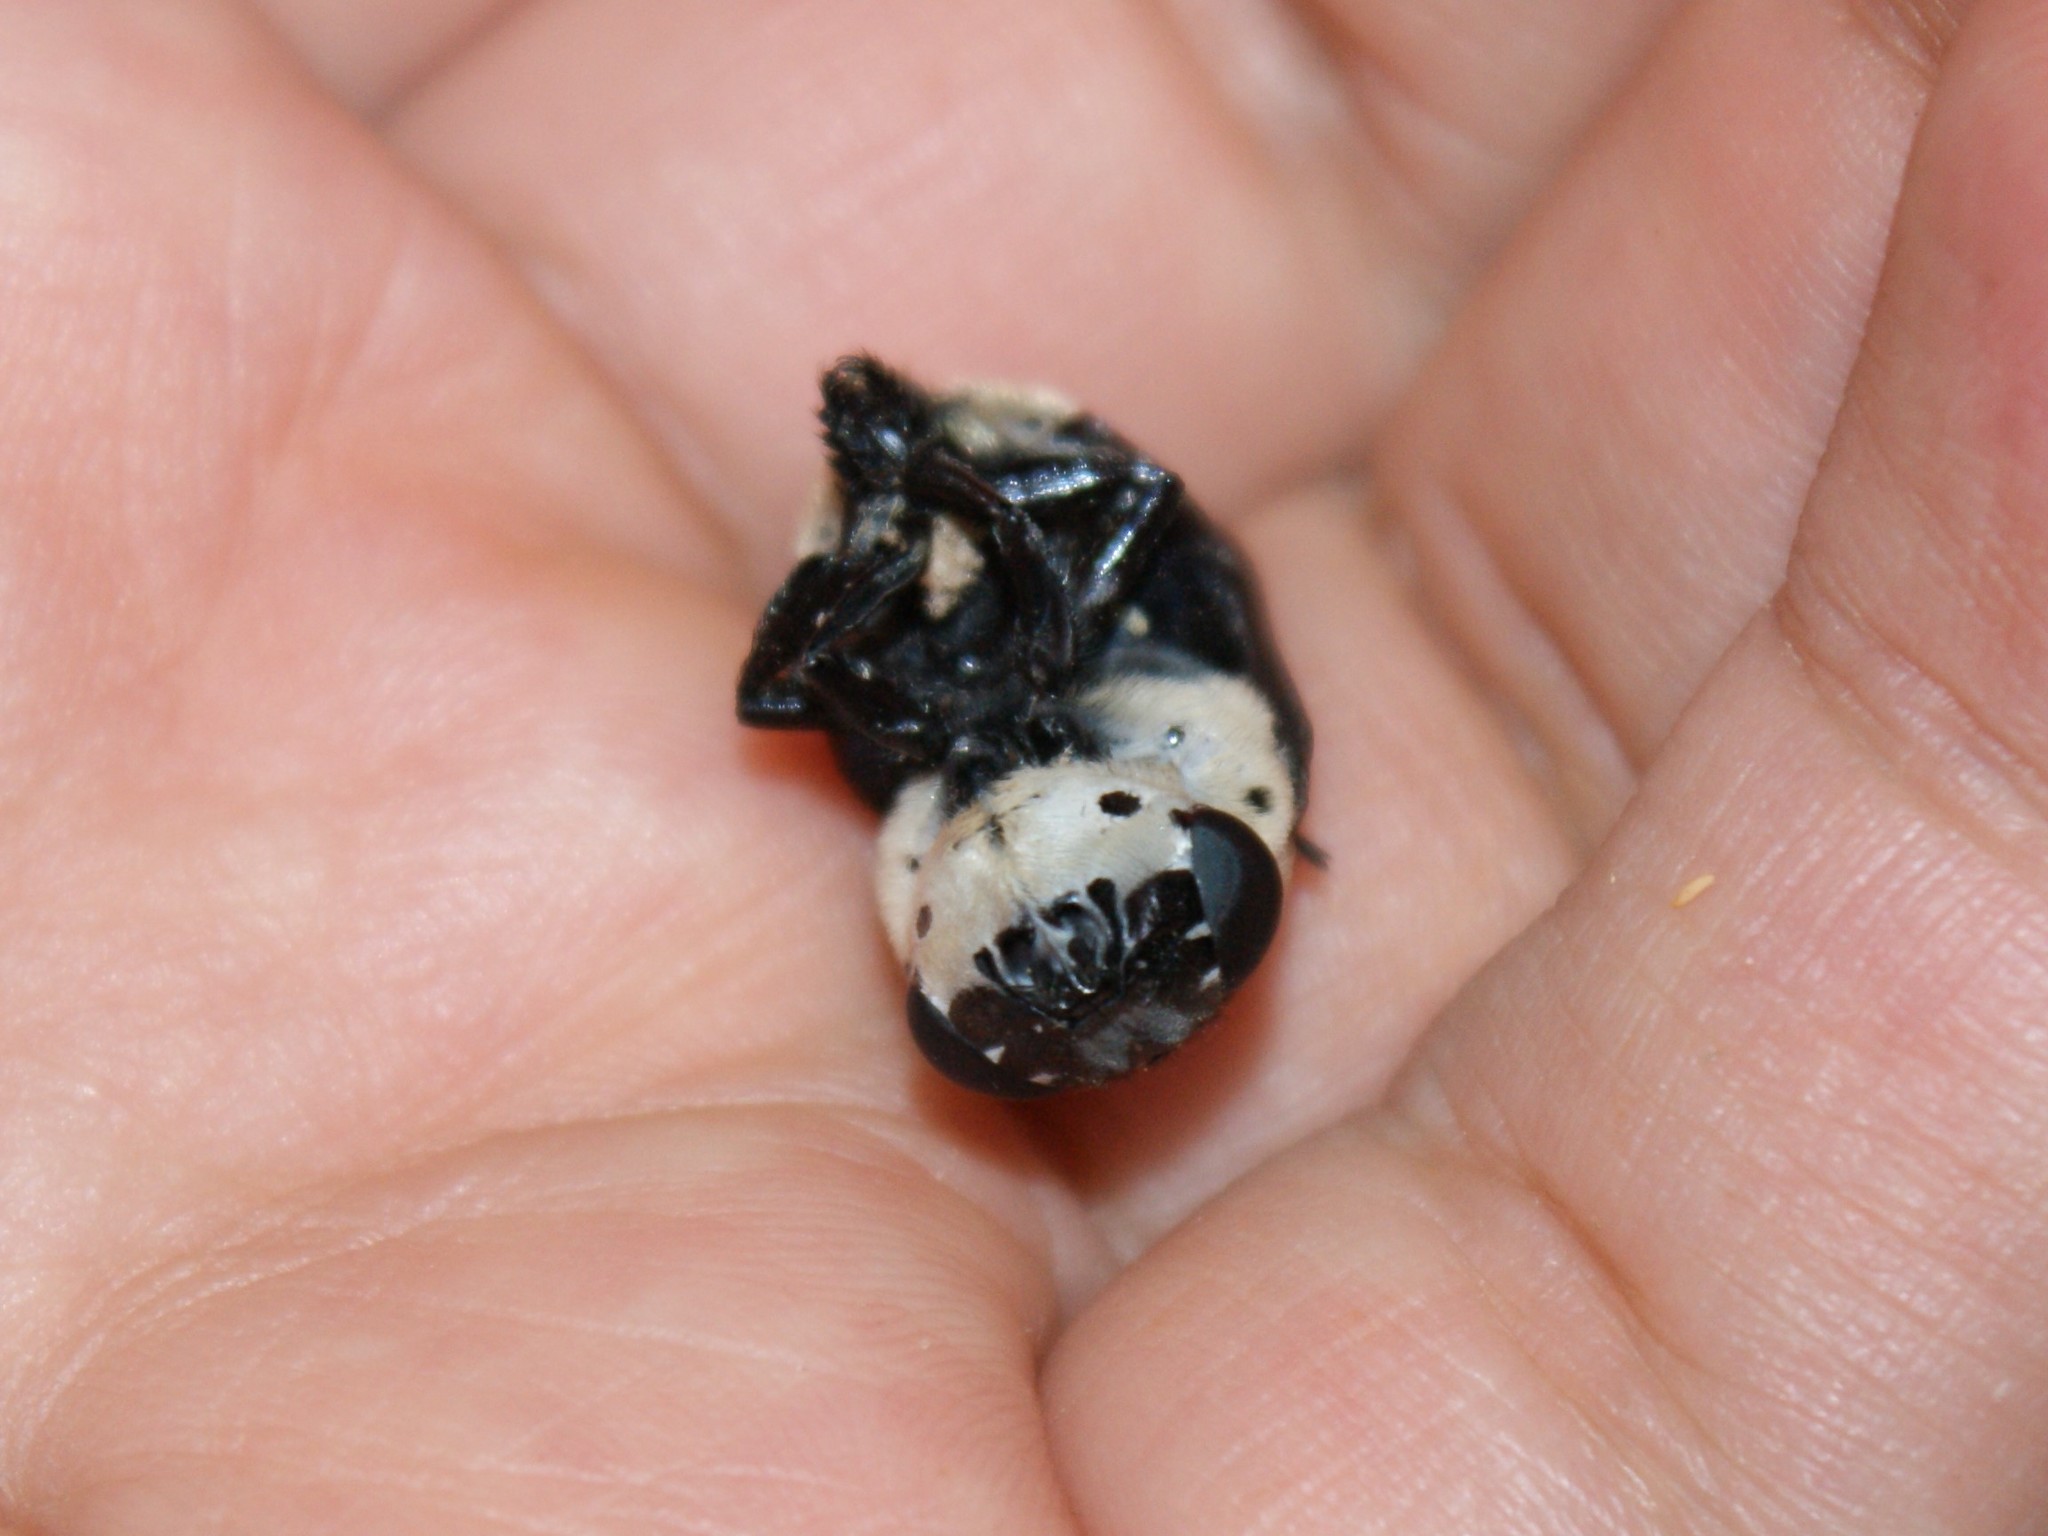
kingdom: Animalia
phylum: Arthropoda
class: Insecta
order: Diptera
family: Oestridae
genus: Cuterebra
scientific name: Cuterebra fontinella
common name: Mouse bot fly
